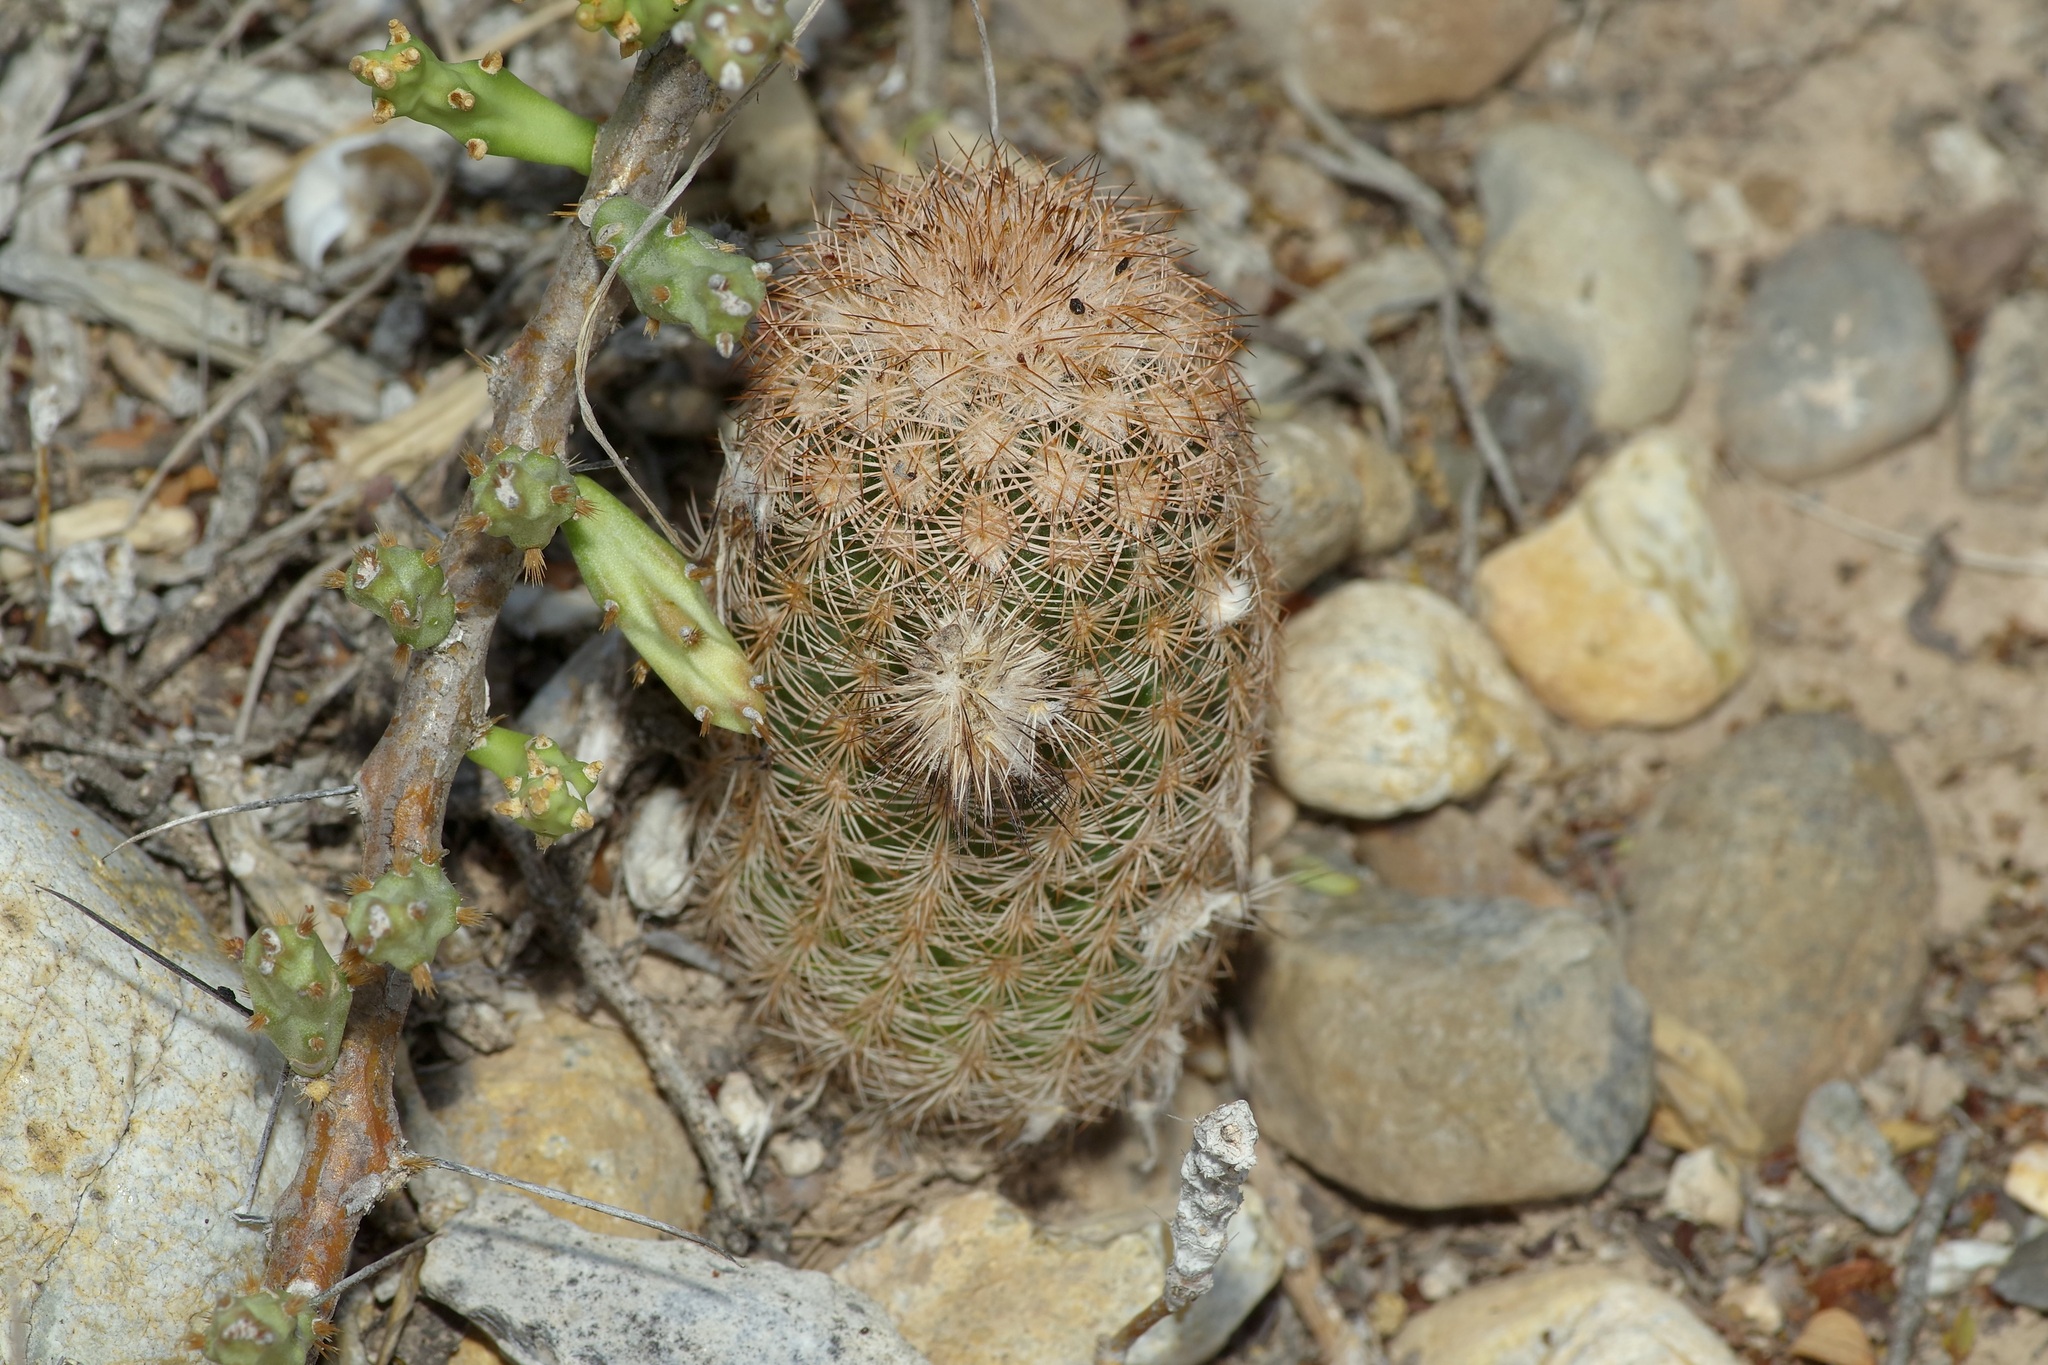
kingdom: Plantae
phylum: Tracheophyta
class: Magnoliopsida
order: Caryophyllales
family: Cactaceae
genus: Echinocereus
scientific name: Echinocereus reichenbachii
